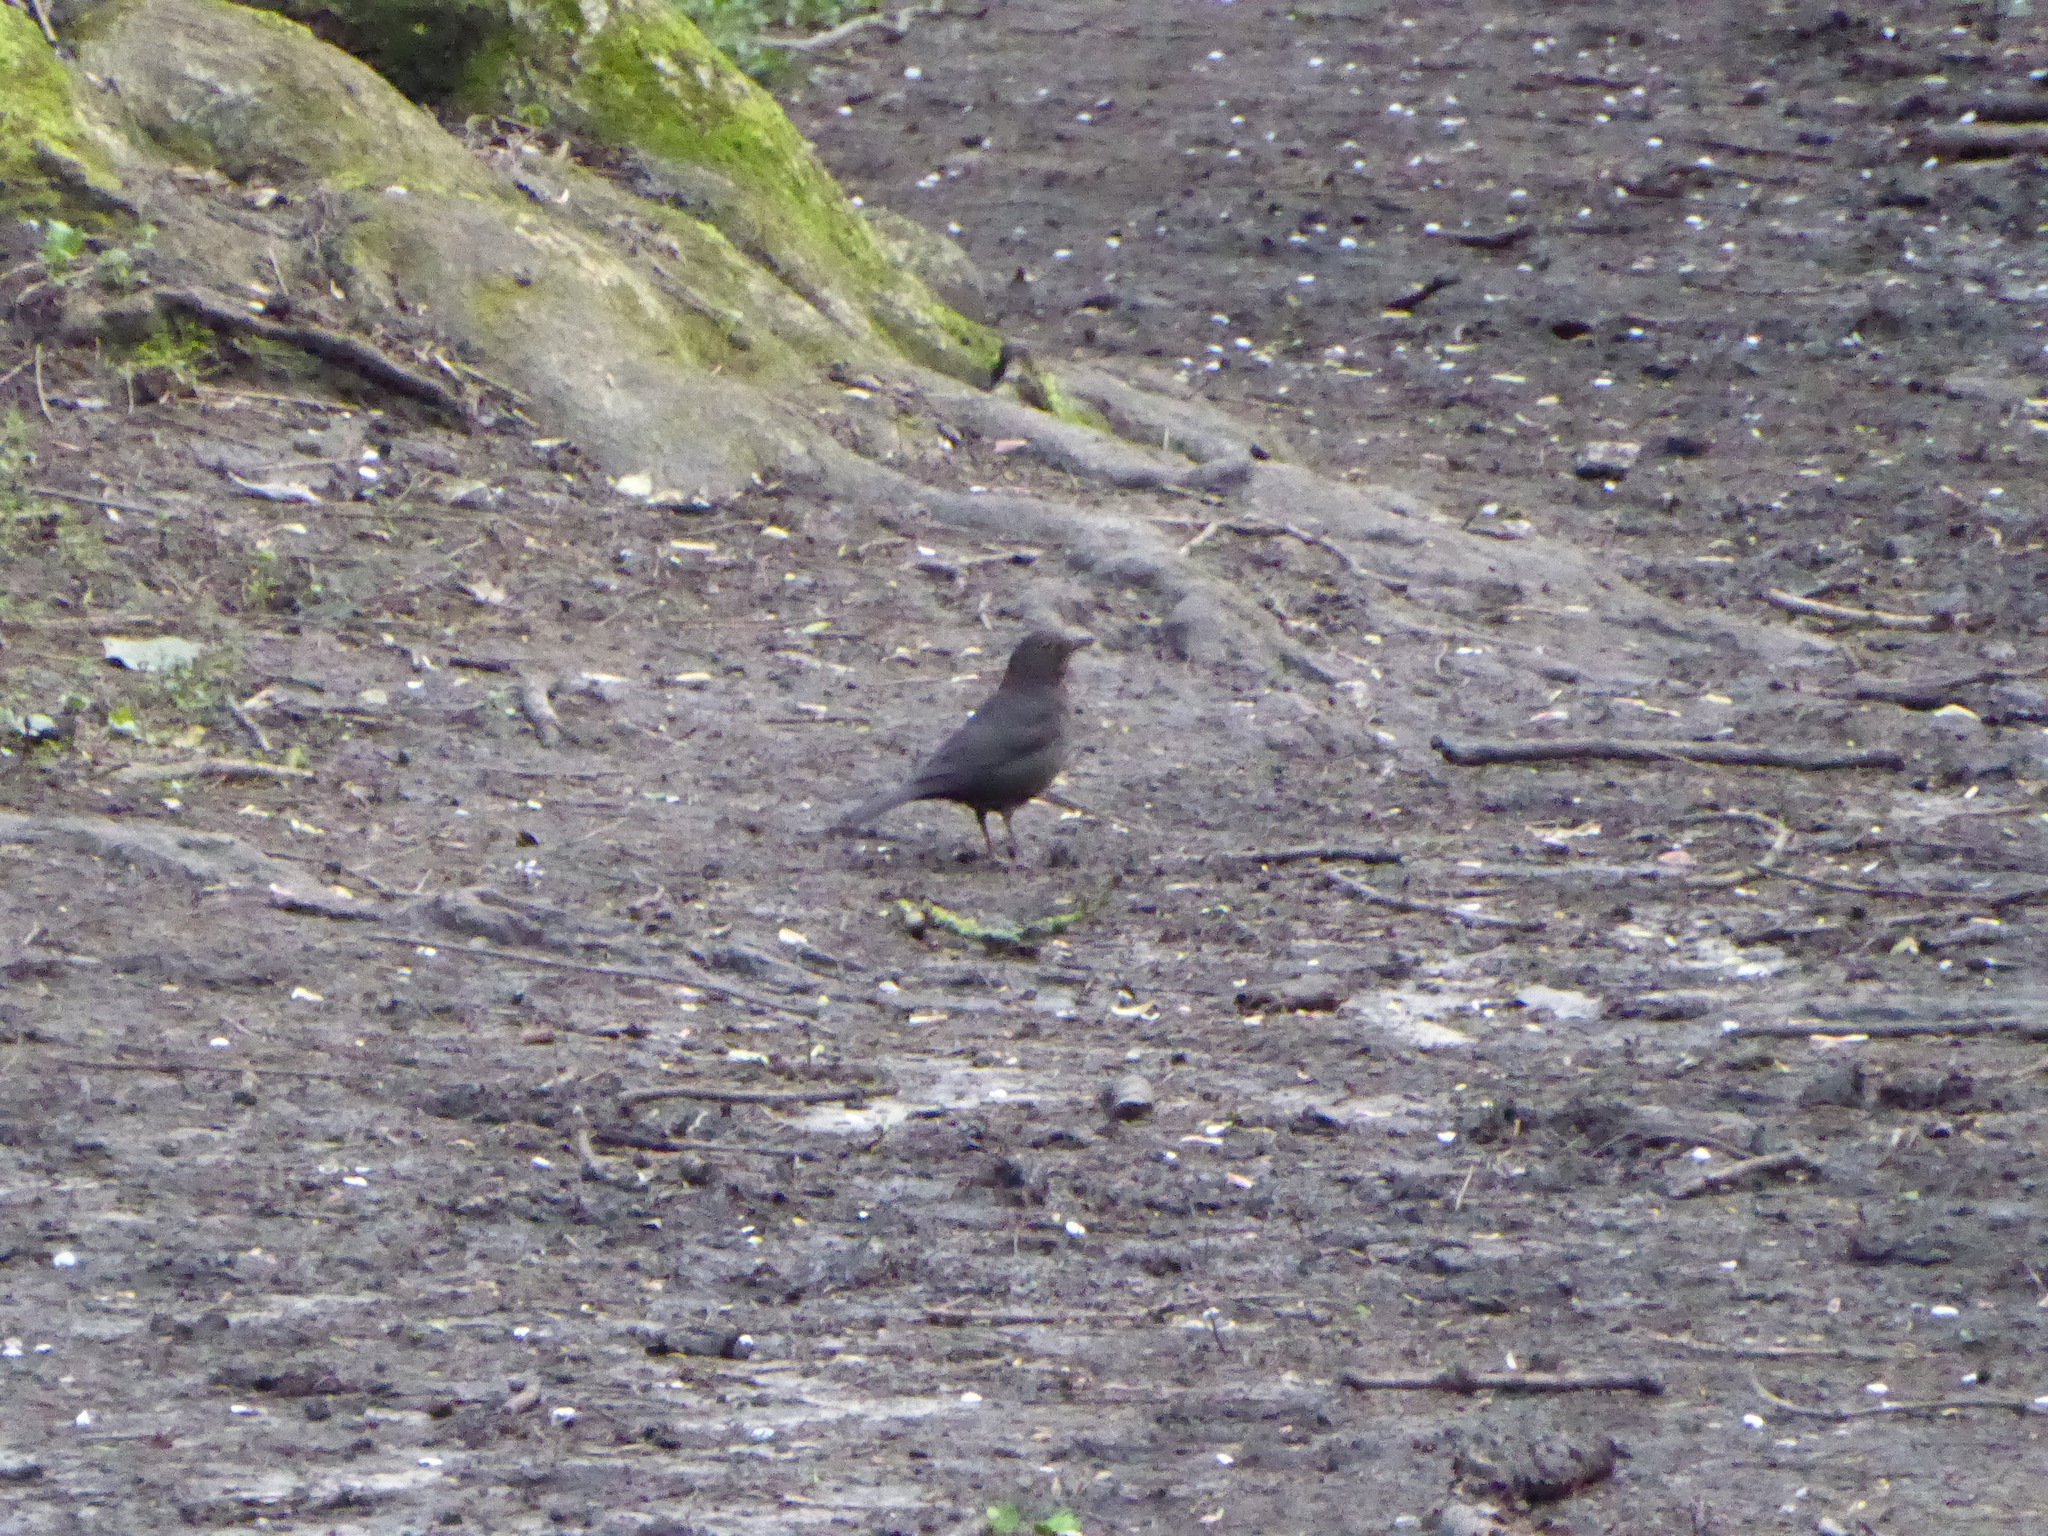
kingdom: Animalia
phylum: Chordata
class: Aves
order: Passeriformes
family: Turdidae
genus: Turdus
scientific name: Turdus merula
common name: Common blackbird
